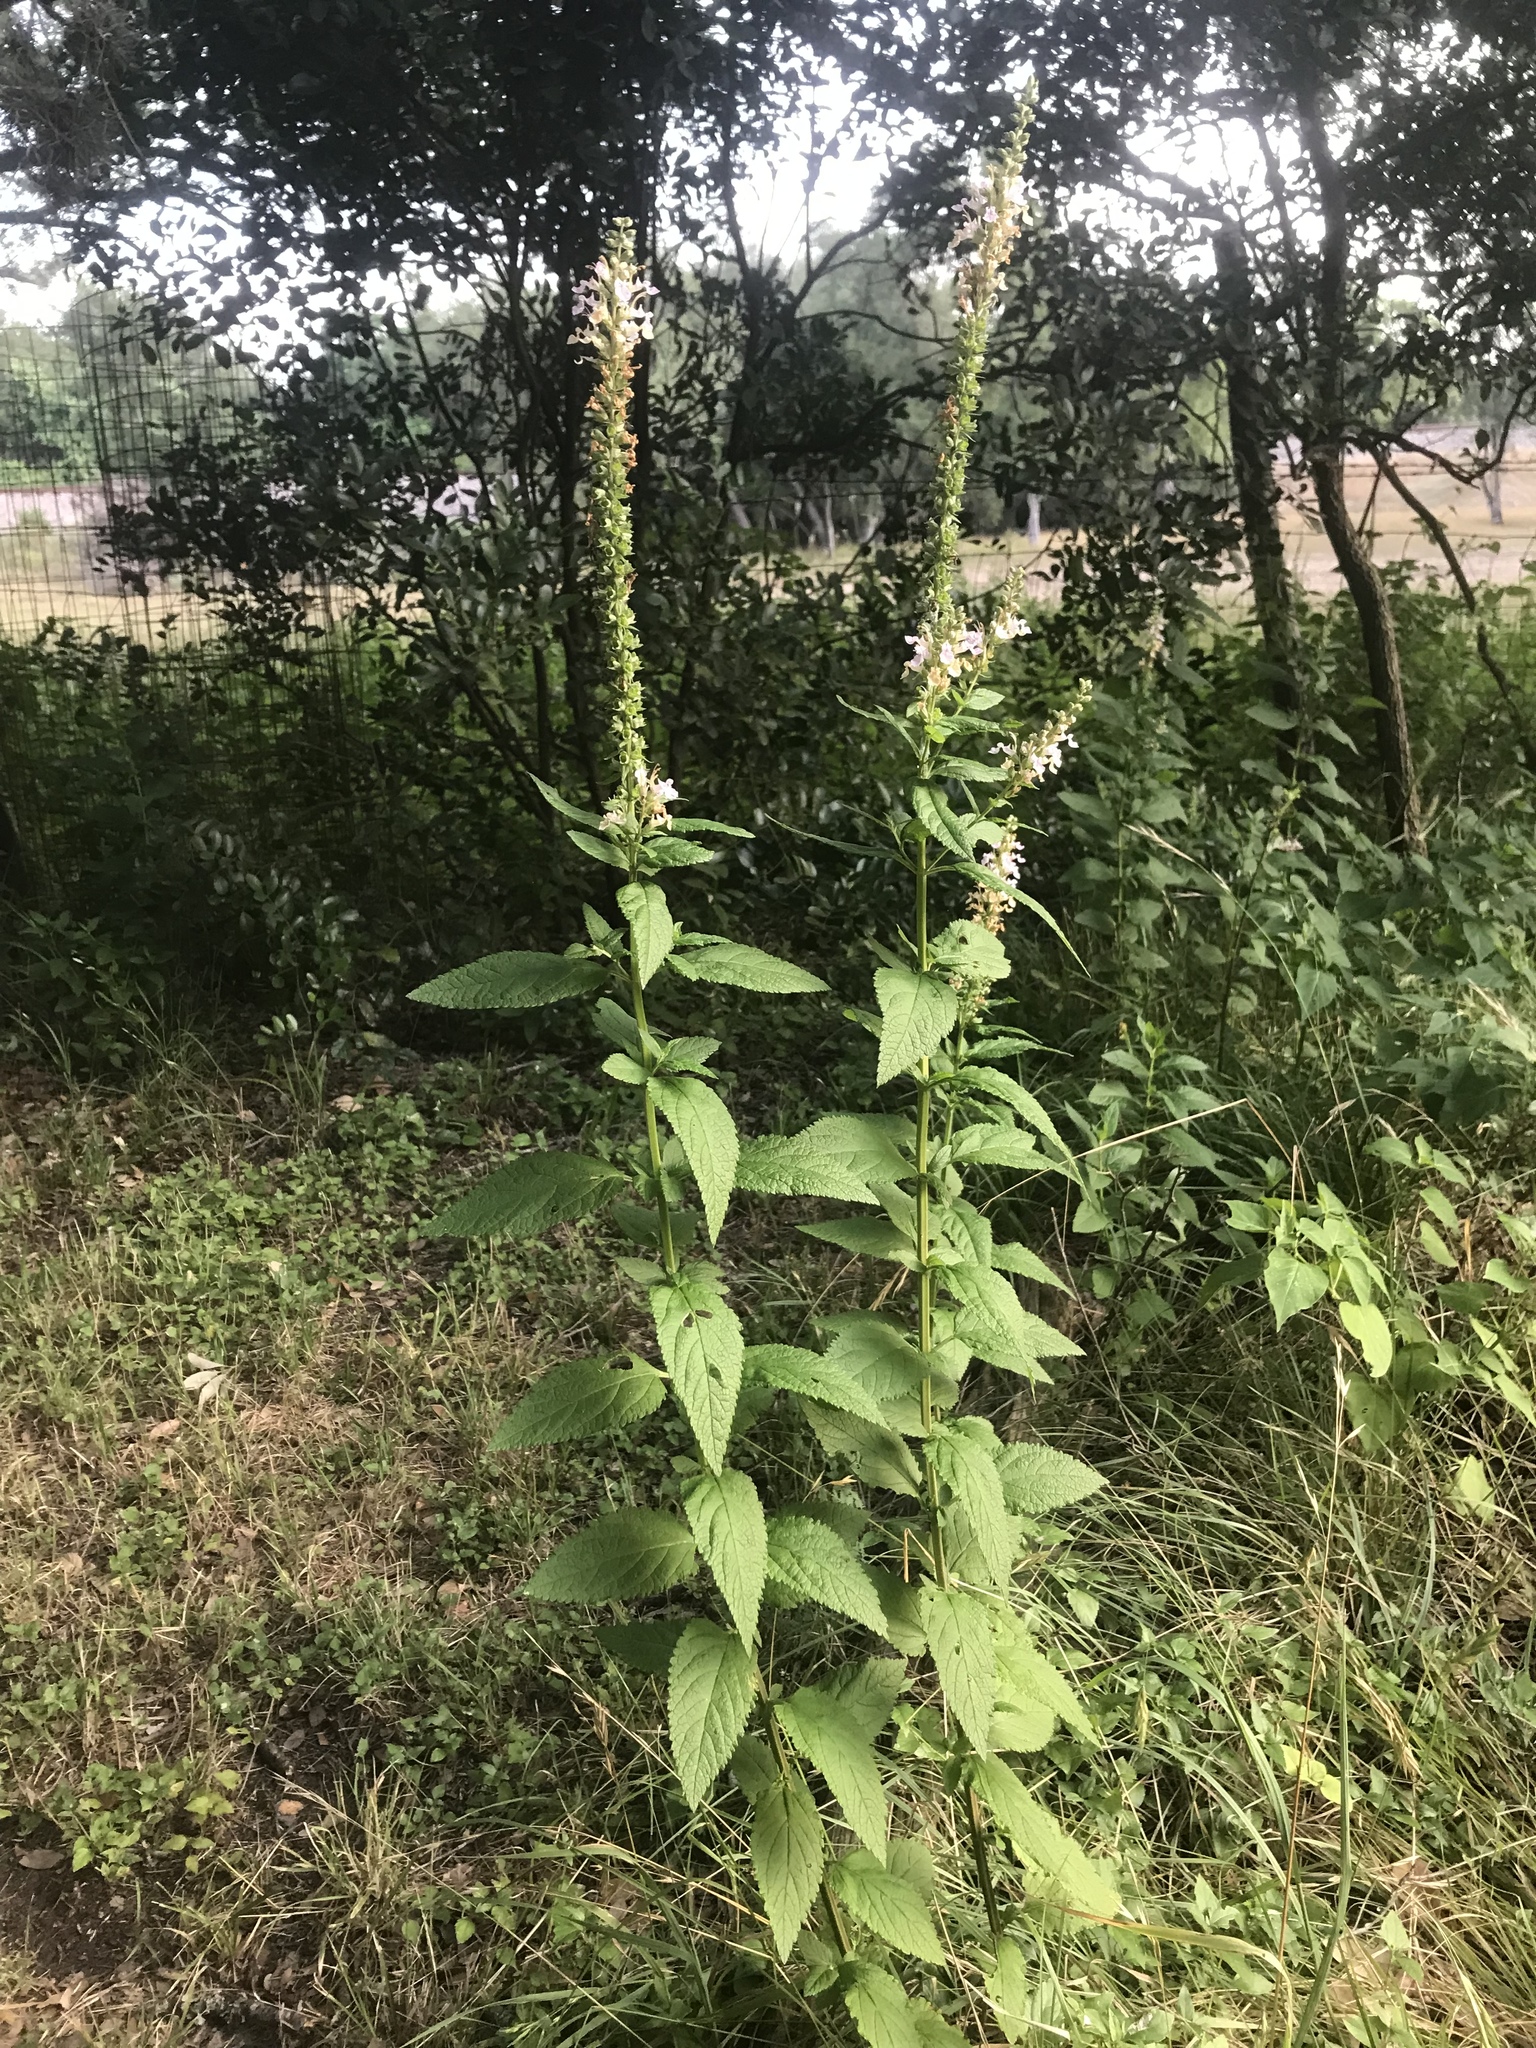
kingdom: Plantae
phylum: Tracheophyta
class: Magnoliopsida
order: Lamiales
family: Lamiaceae
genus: Teucrium
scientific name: Teucrium canadense
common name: American germander
